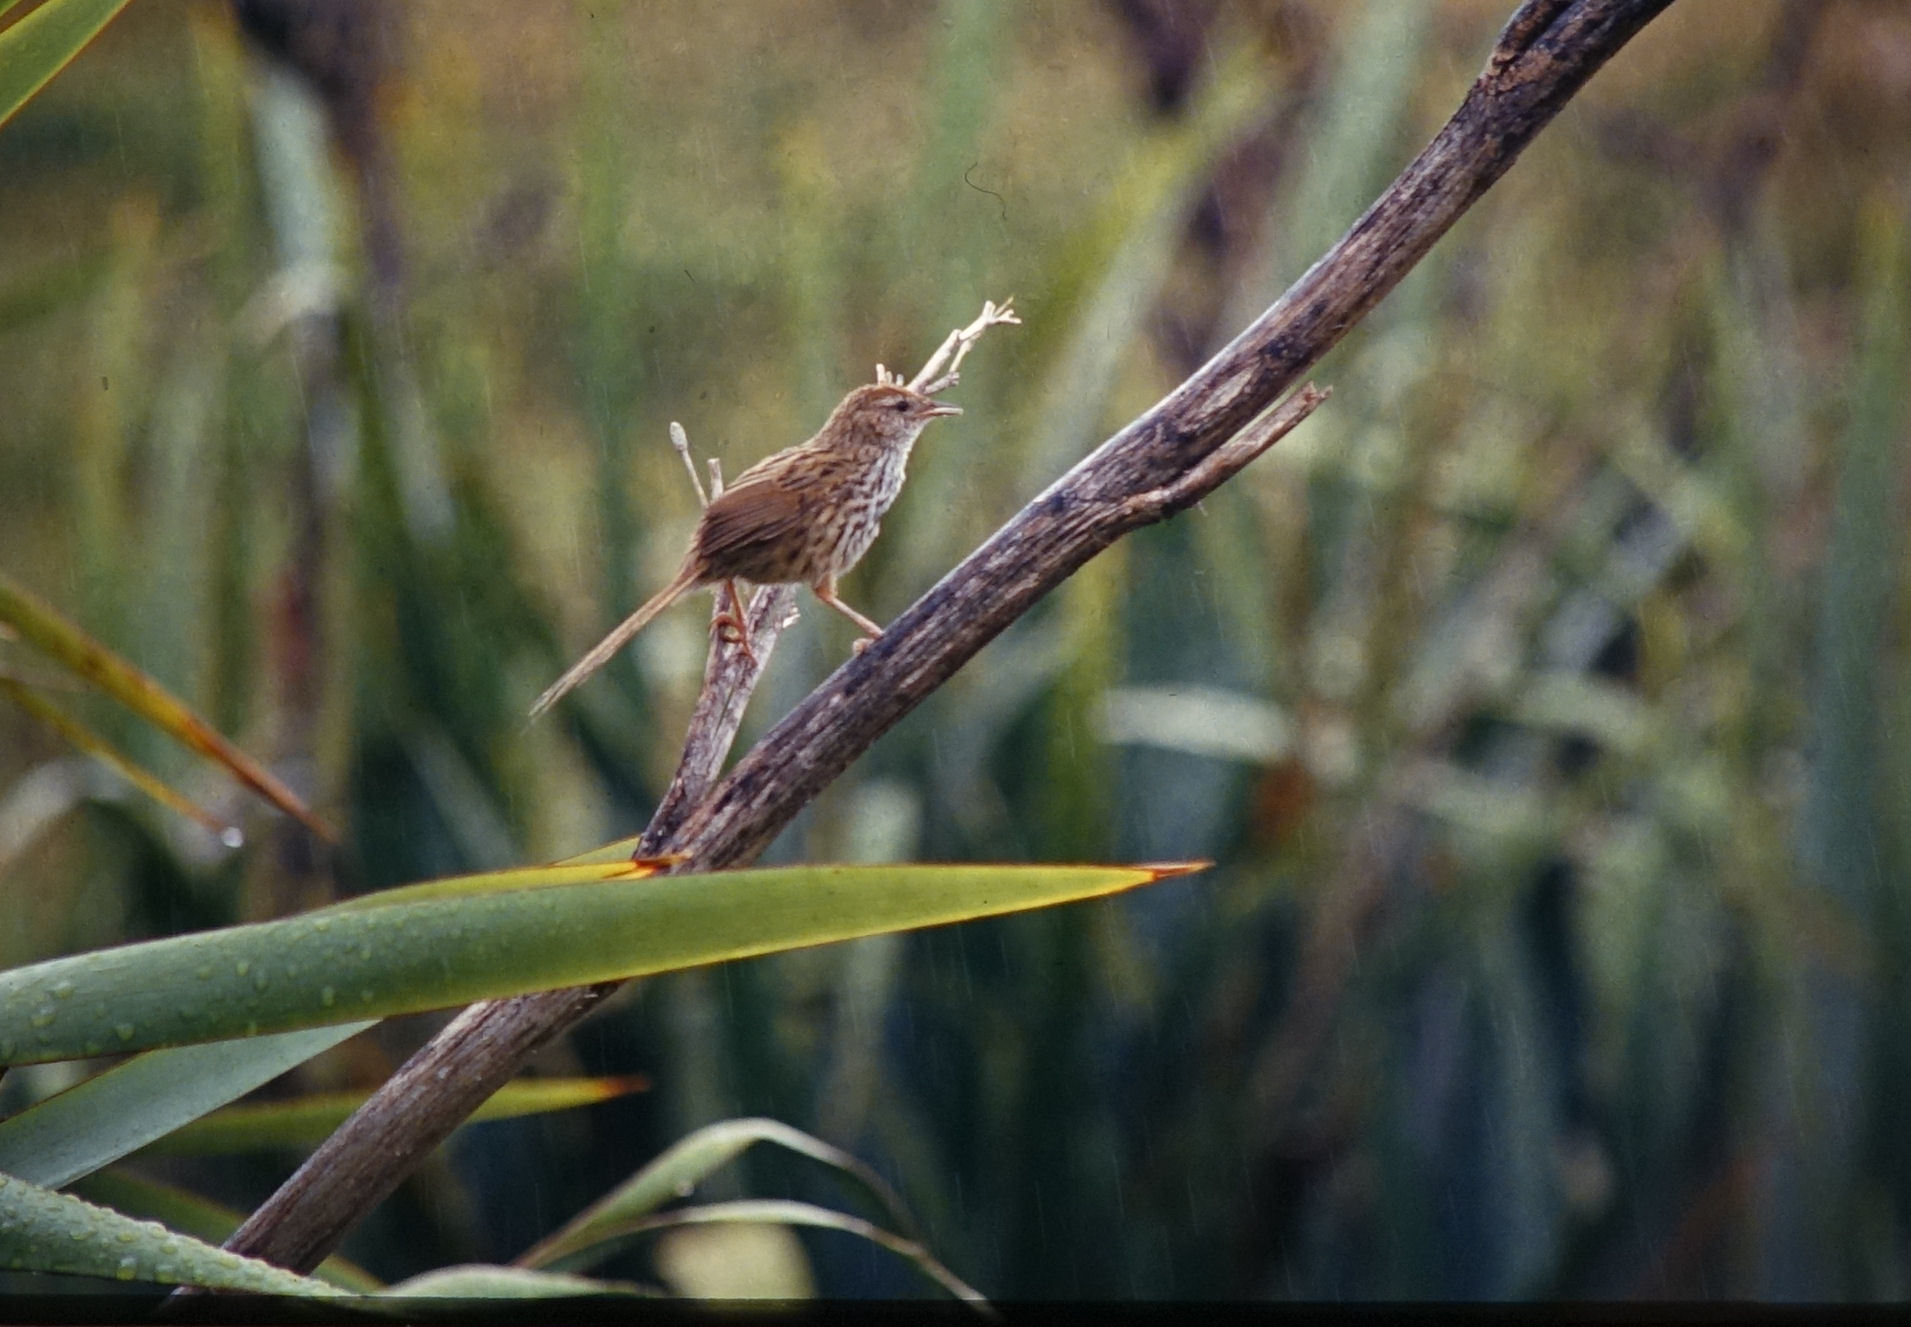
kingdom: Animalia
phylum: Chordata
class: Aves
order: Passeriformes
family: Locustellidae
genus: Megalurus
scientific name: Megalurus punctatus
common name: New zealand fernbird
